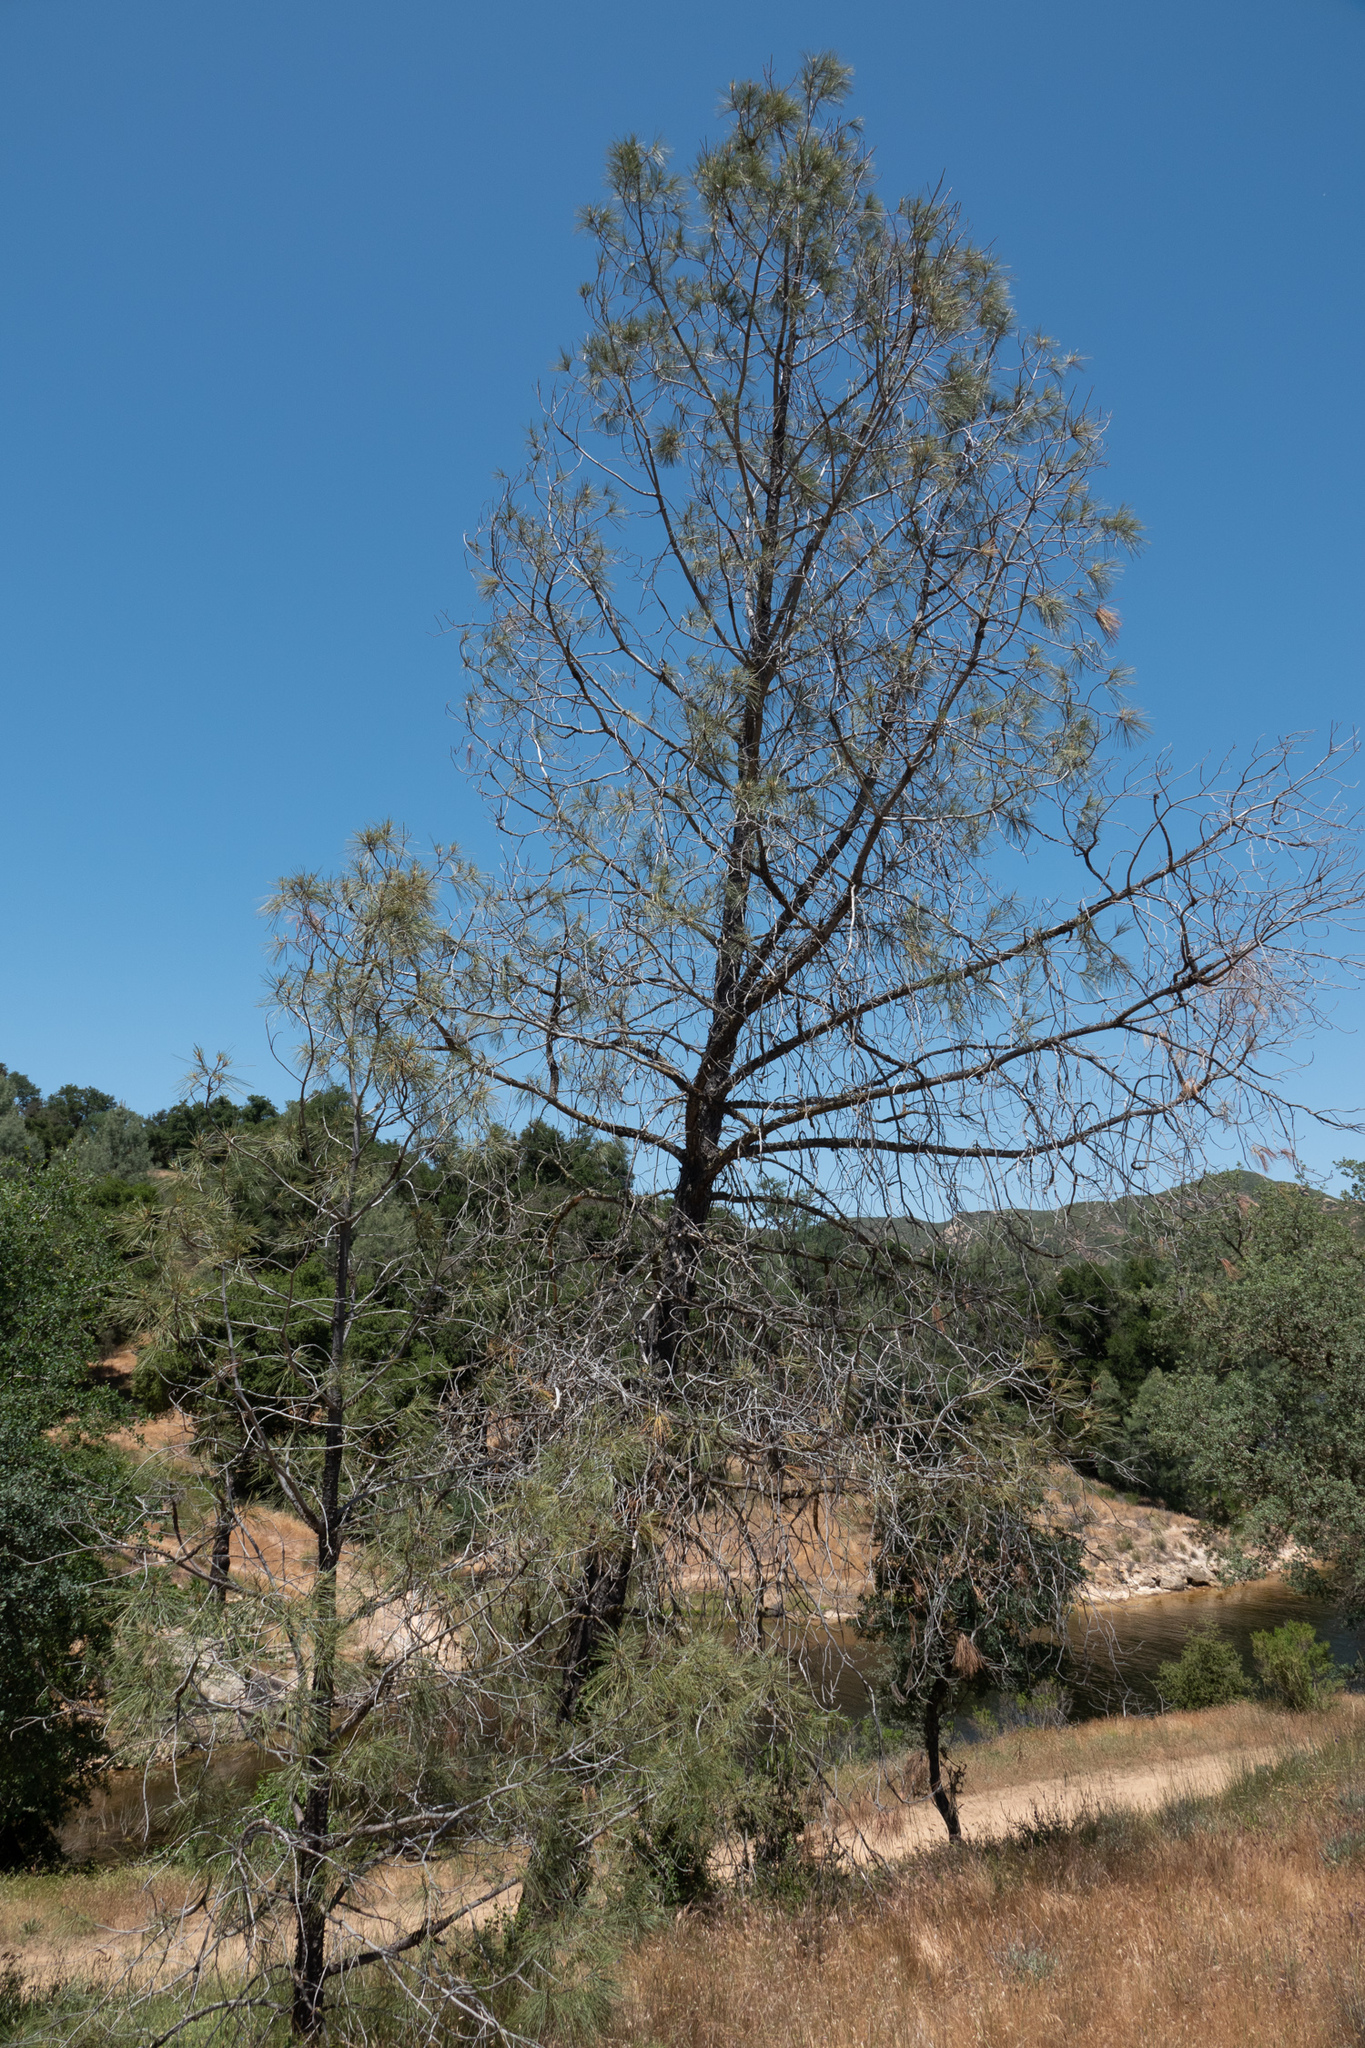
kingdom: Plantae
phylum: Tracheophyta
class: Pinopsida
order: Pinales
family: Pinaceae
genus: Pinus
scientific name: Pinus sabiniana
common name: Bull pine
